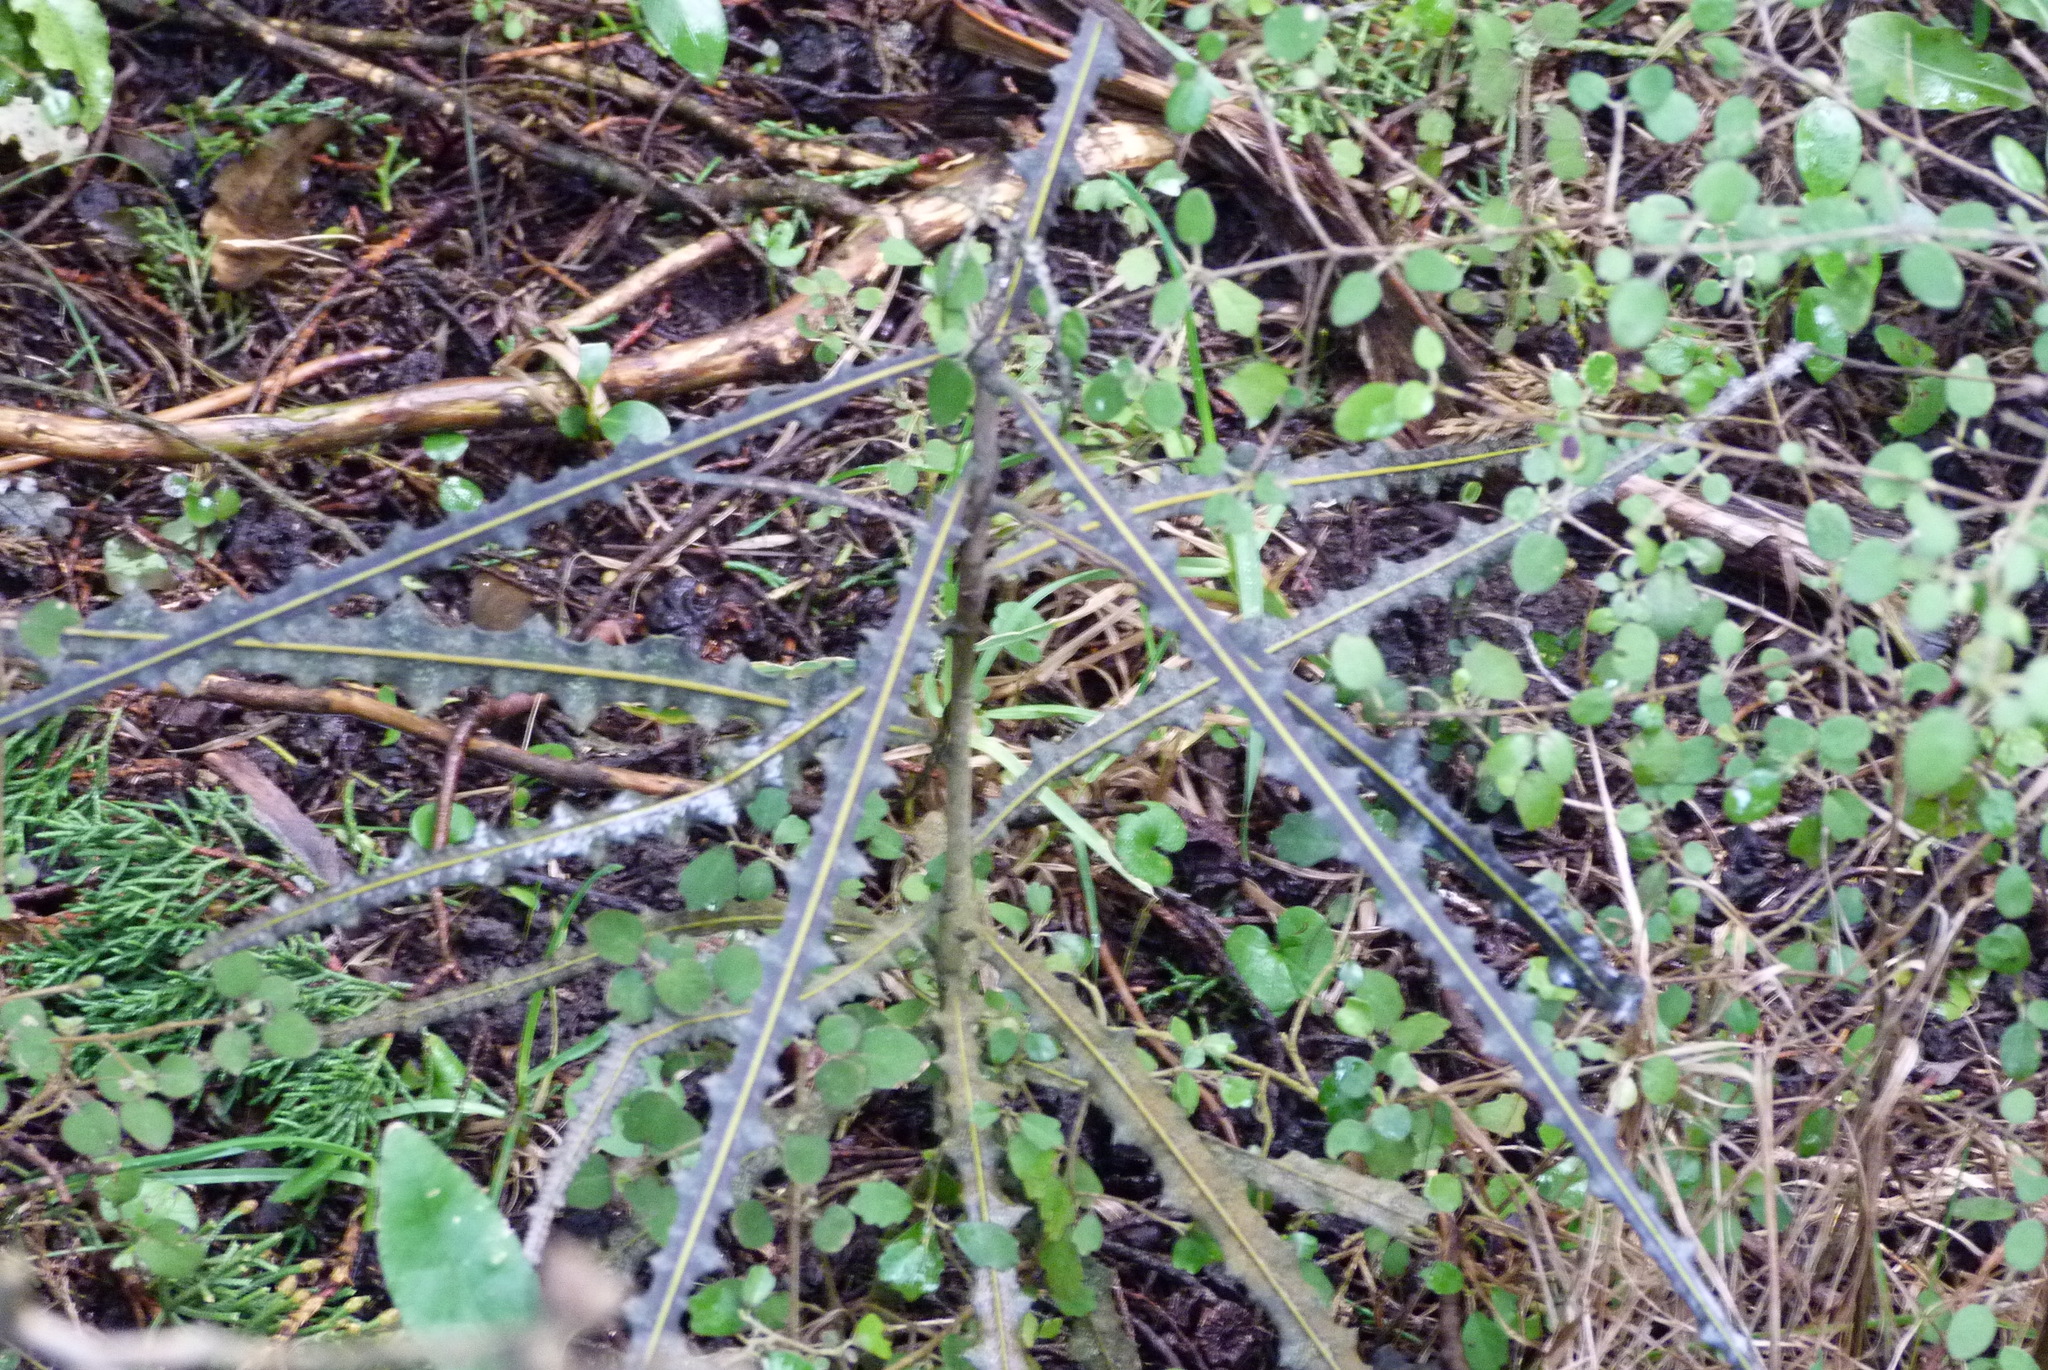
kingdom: Plantae
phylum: Tracheophyta
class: Magnoliopsida
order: Apiales
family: Araliaceae
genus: Pseudopanax
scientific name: Pseudopanax ferox
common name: Fierce lancewood
